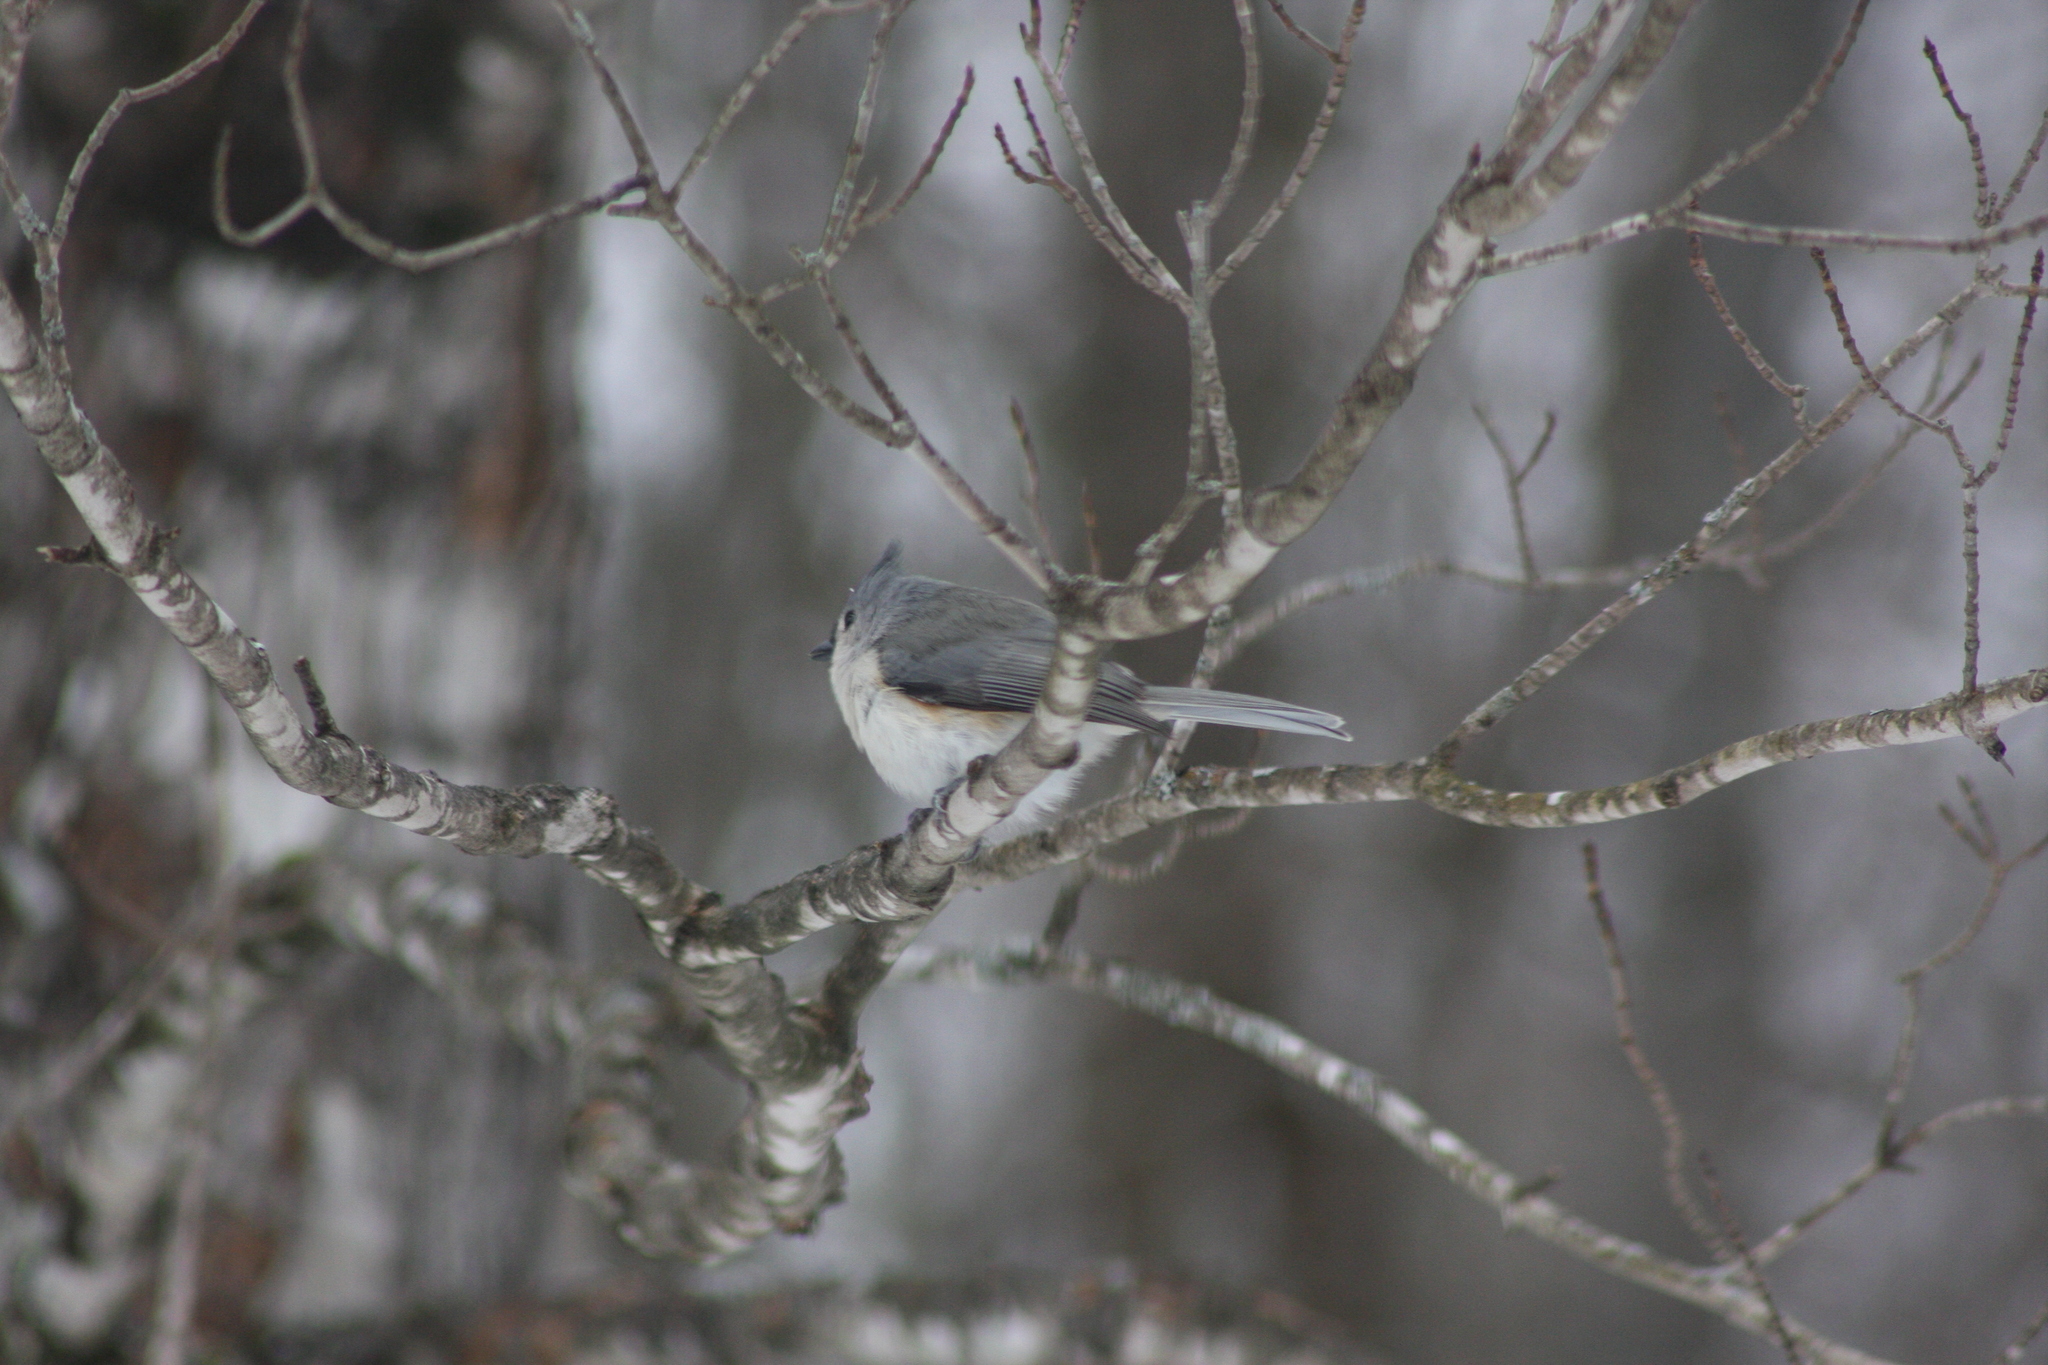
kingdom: Animalia
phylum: Chordata
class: Aves
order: Passeriformes
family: Paridae
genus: Baeolophus
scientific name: Baeolophus bicolor
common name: Tufted titmouse
